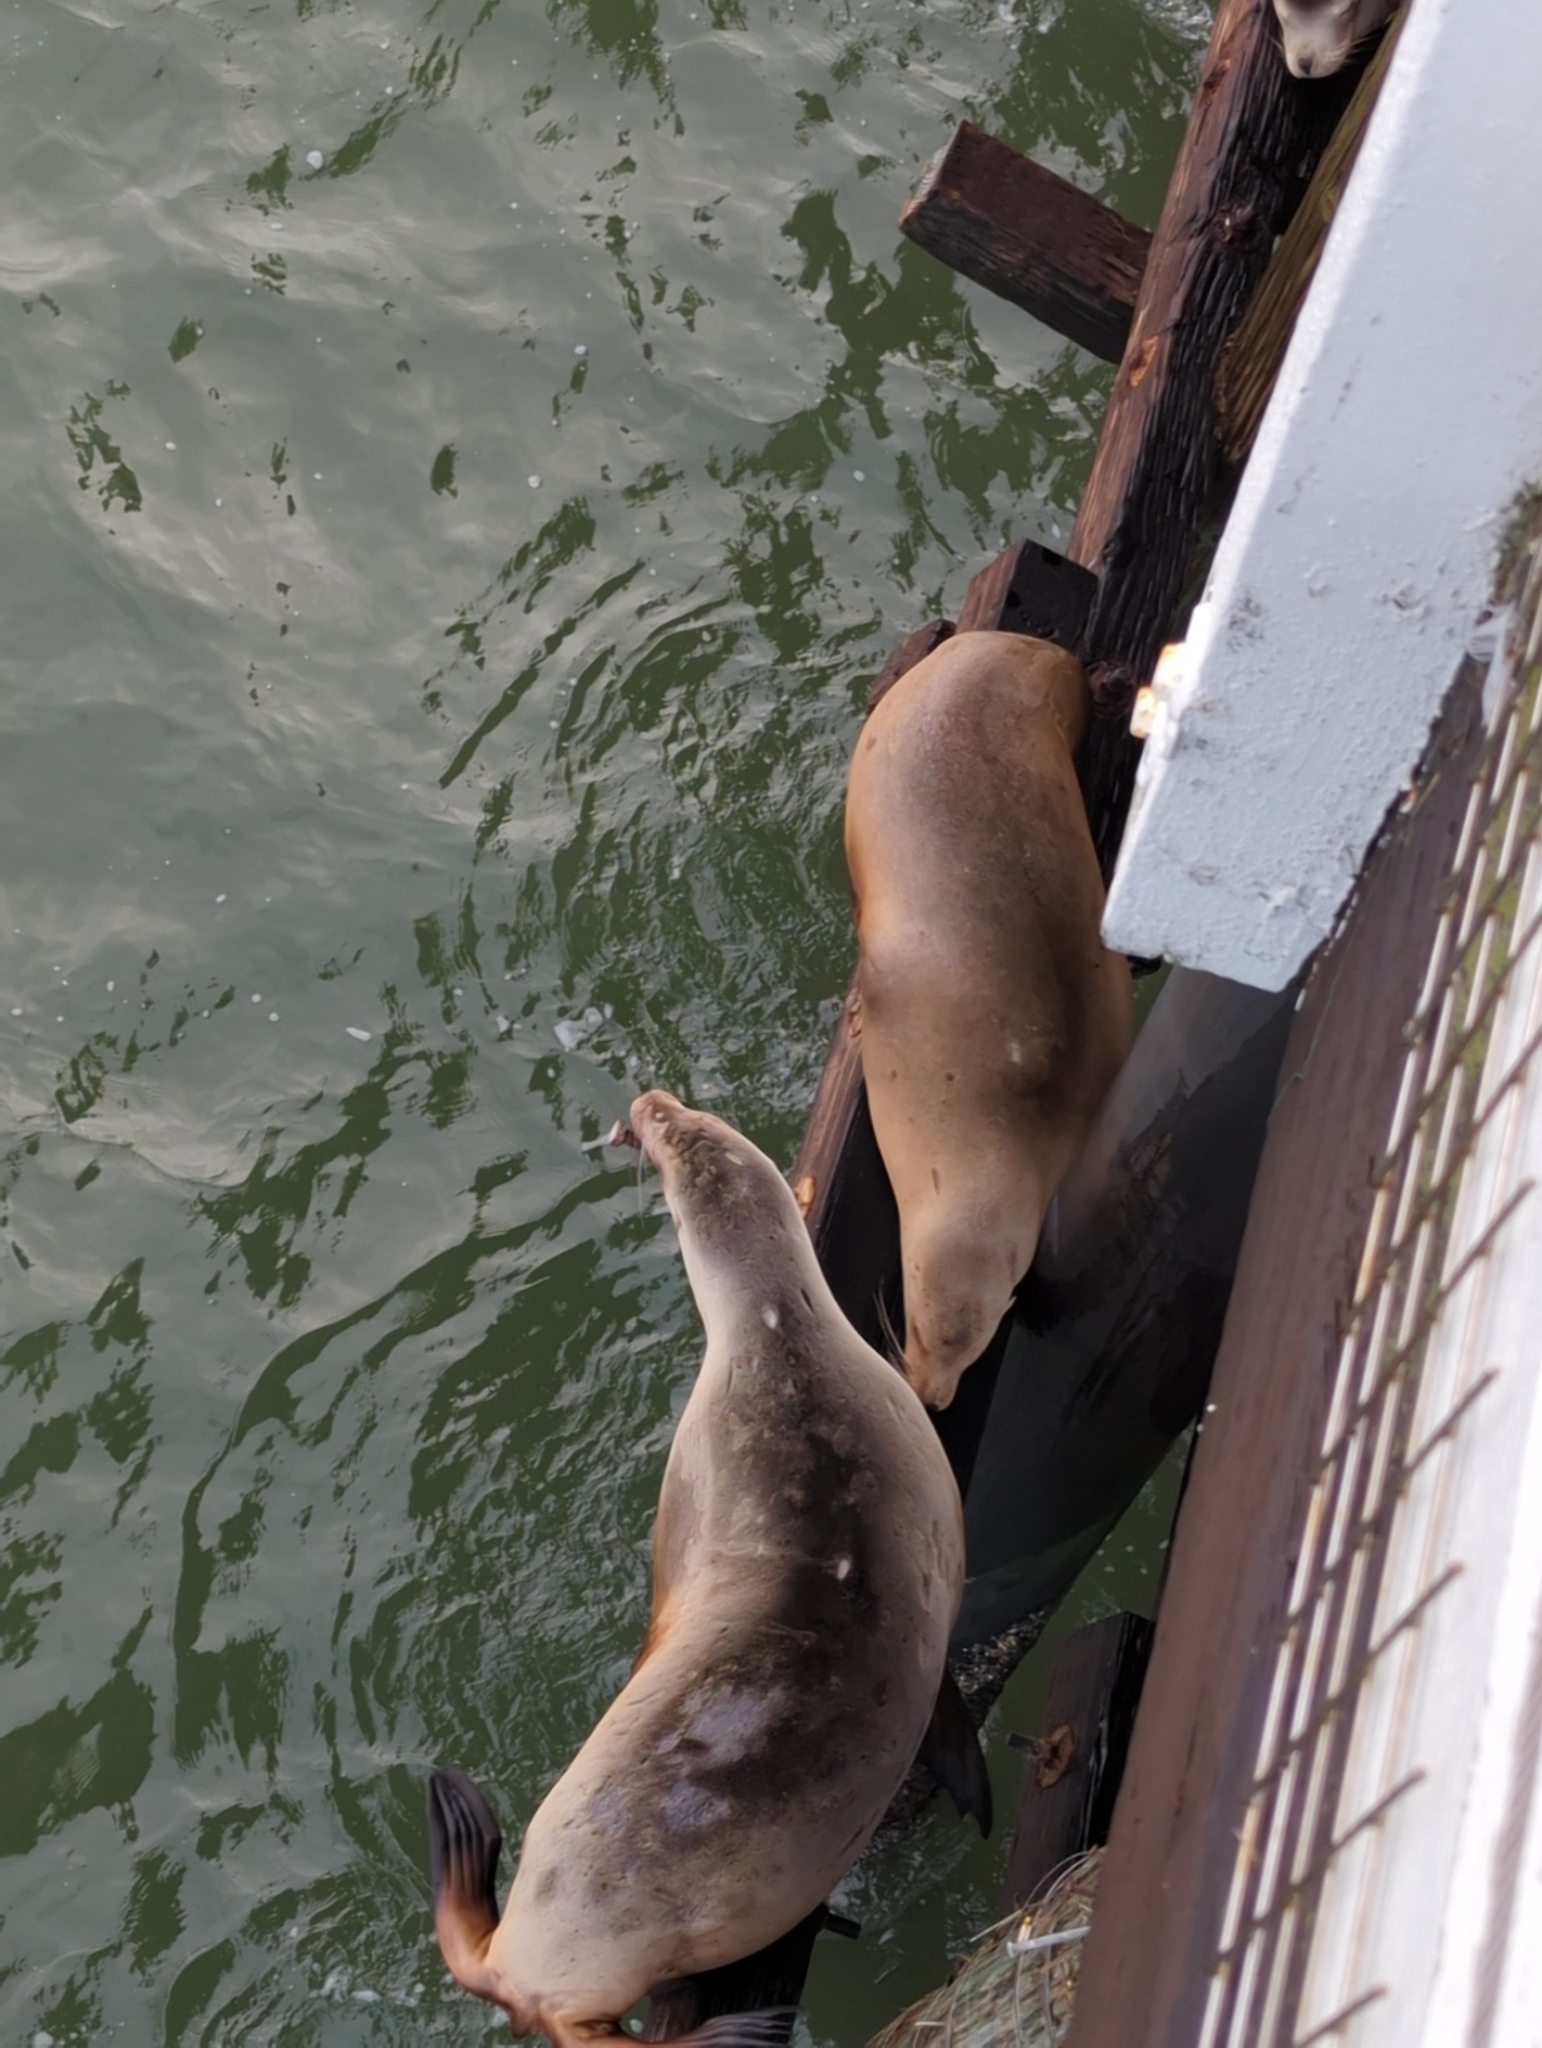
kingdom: Animalia
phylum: Chordata
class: Mammalia
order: Carnivora
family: Otariidae
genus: Zalophus
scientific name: Zalophus californianus
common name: California sea lion
